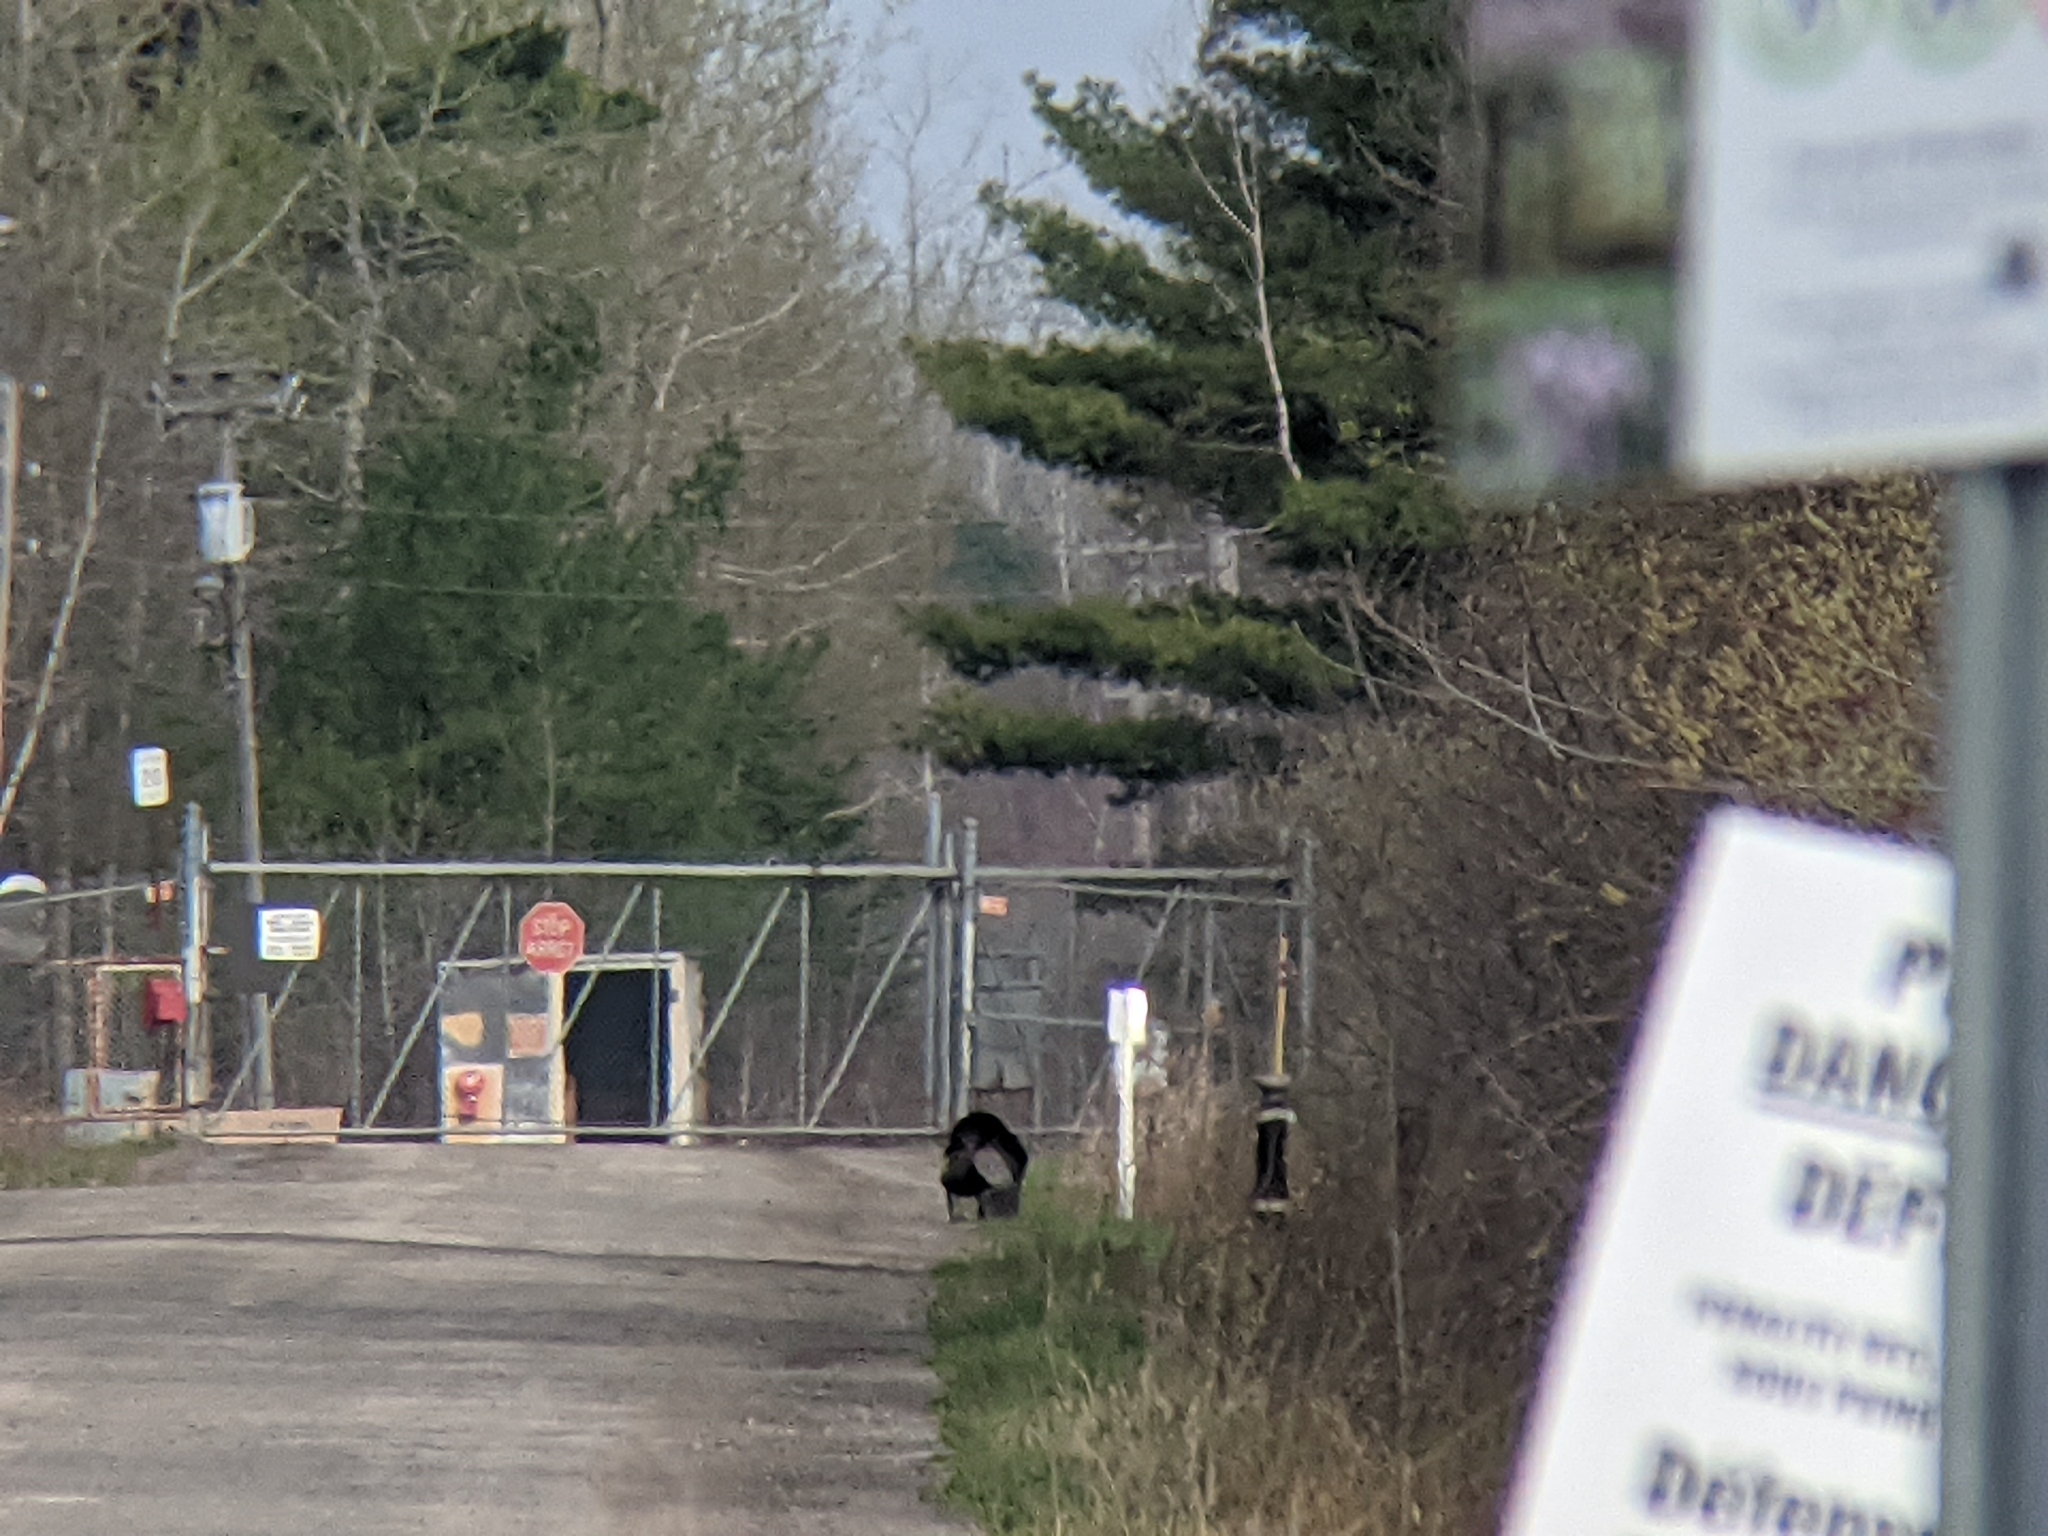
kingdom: Animalia
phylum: Chordata
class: Aves
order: Galliformes
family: Phasianidae
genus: Meleagris
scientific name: Meleagris gallopavo
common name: Wild turkey
